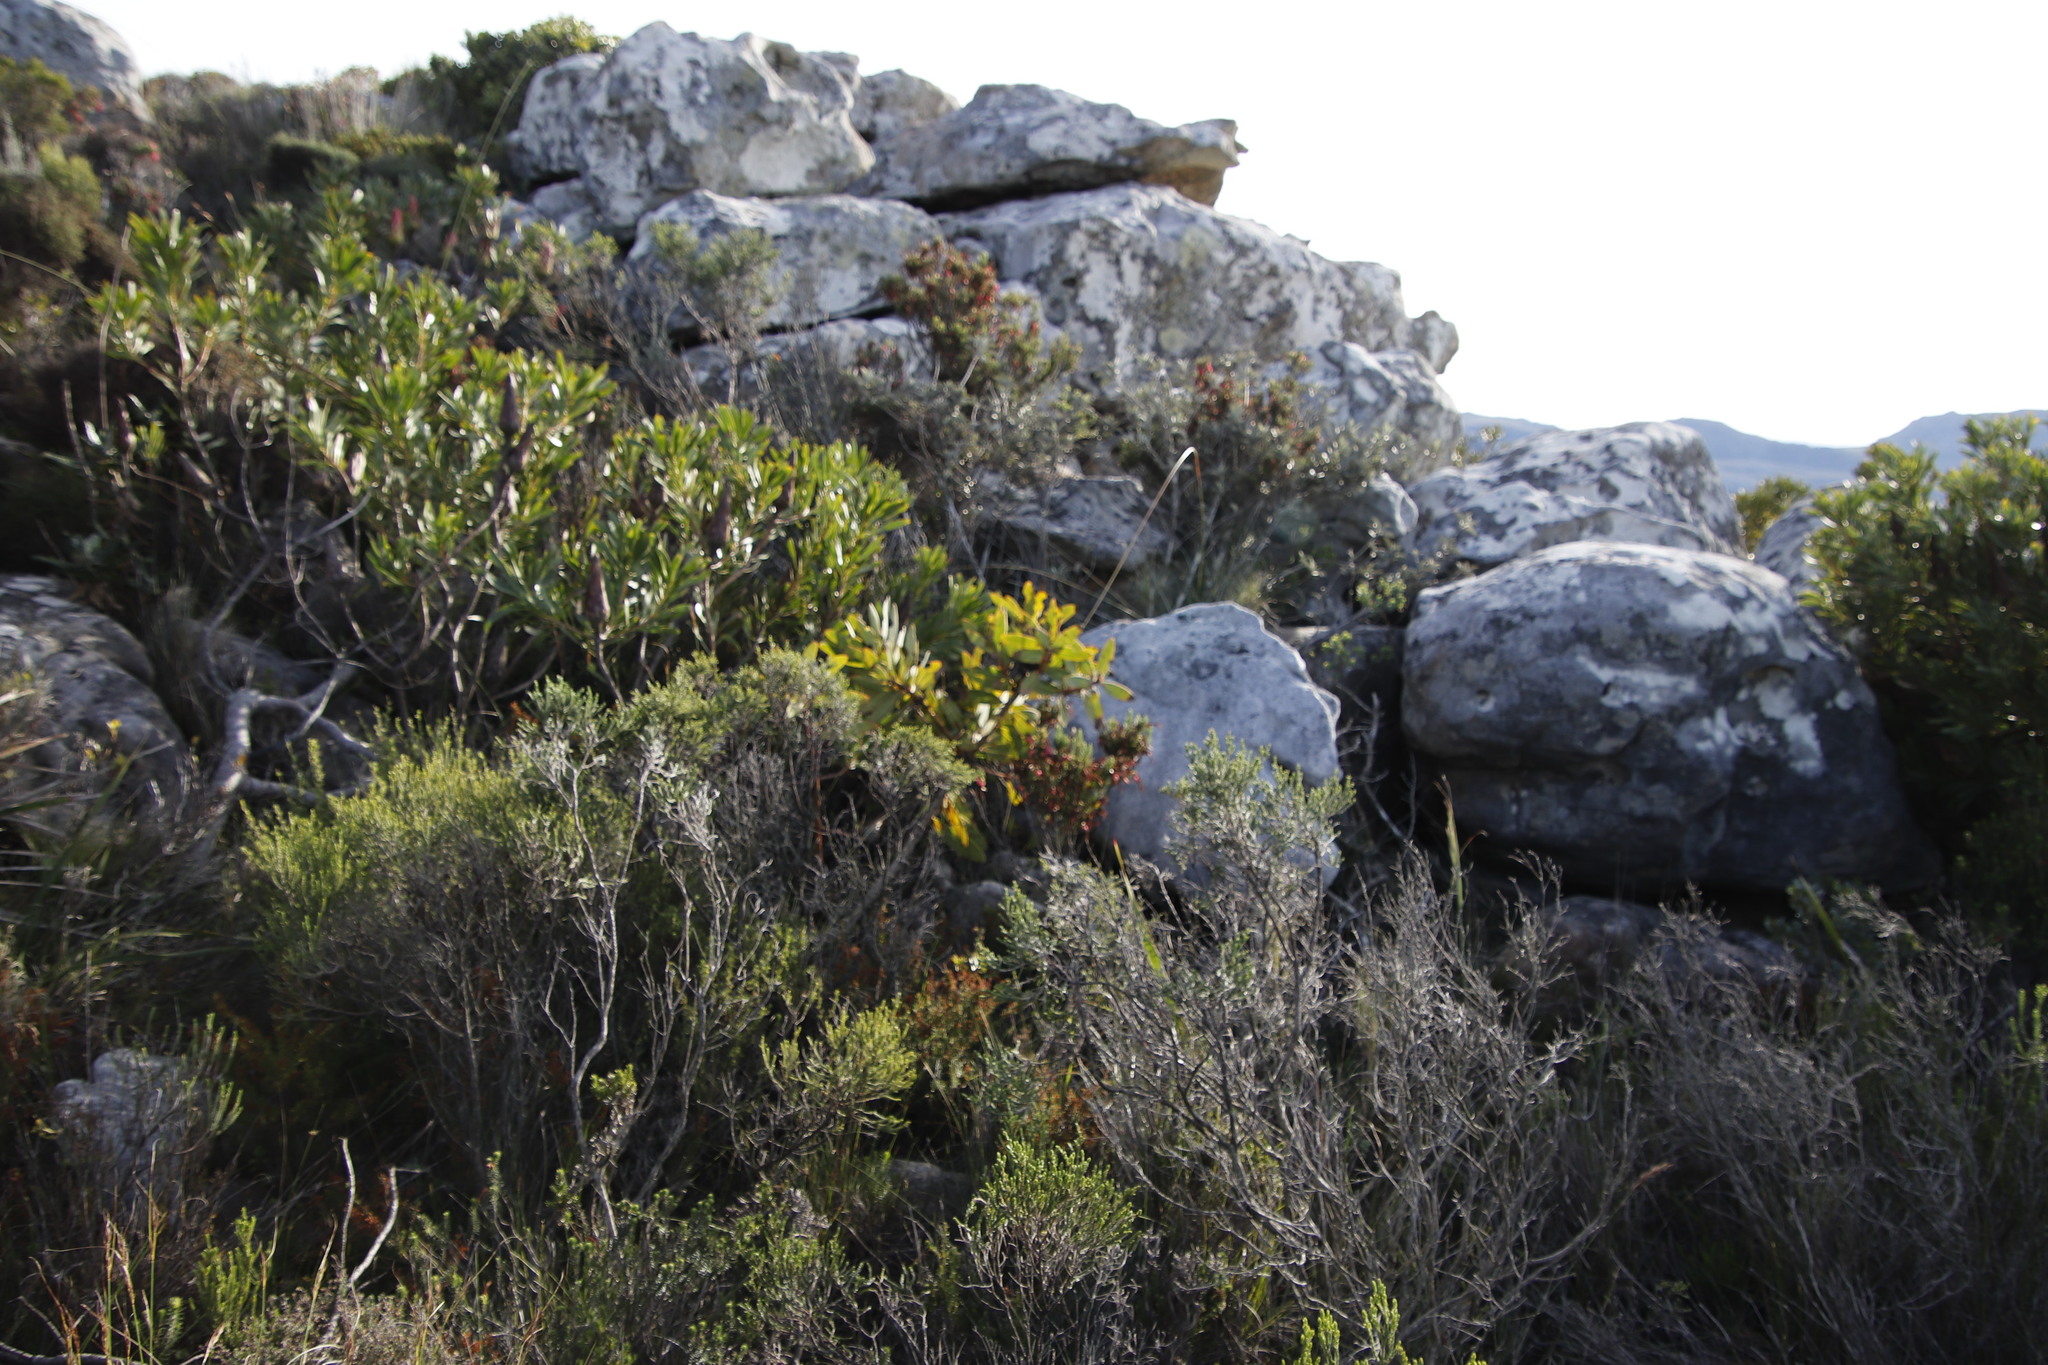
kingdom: Plantae
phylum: Tracheophyta
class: Magnoliopsida
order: Proteales
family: Proteaceae
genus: Protea
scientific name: Protea nitida
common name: Tree protea
